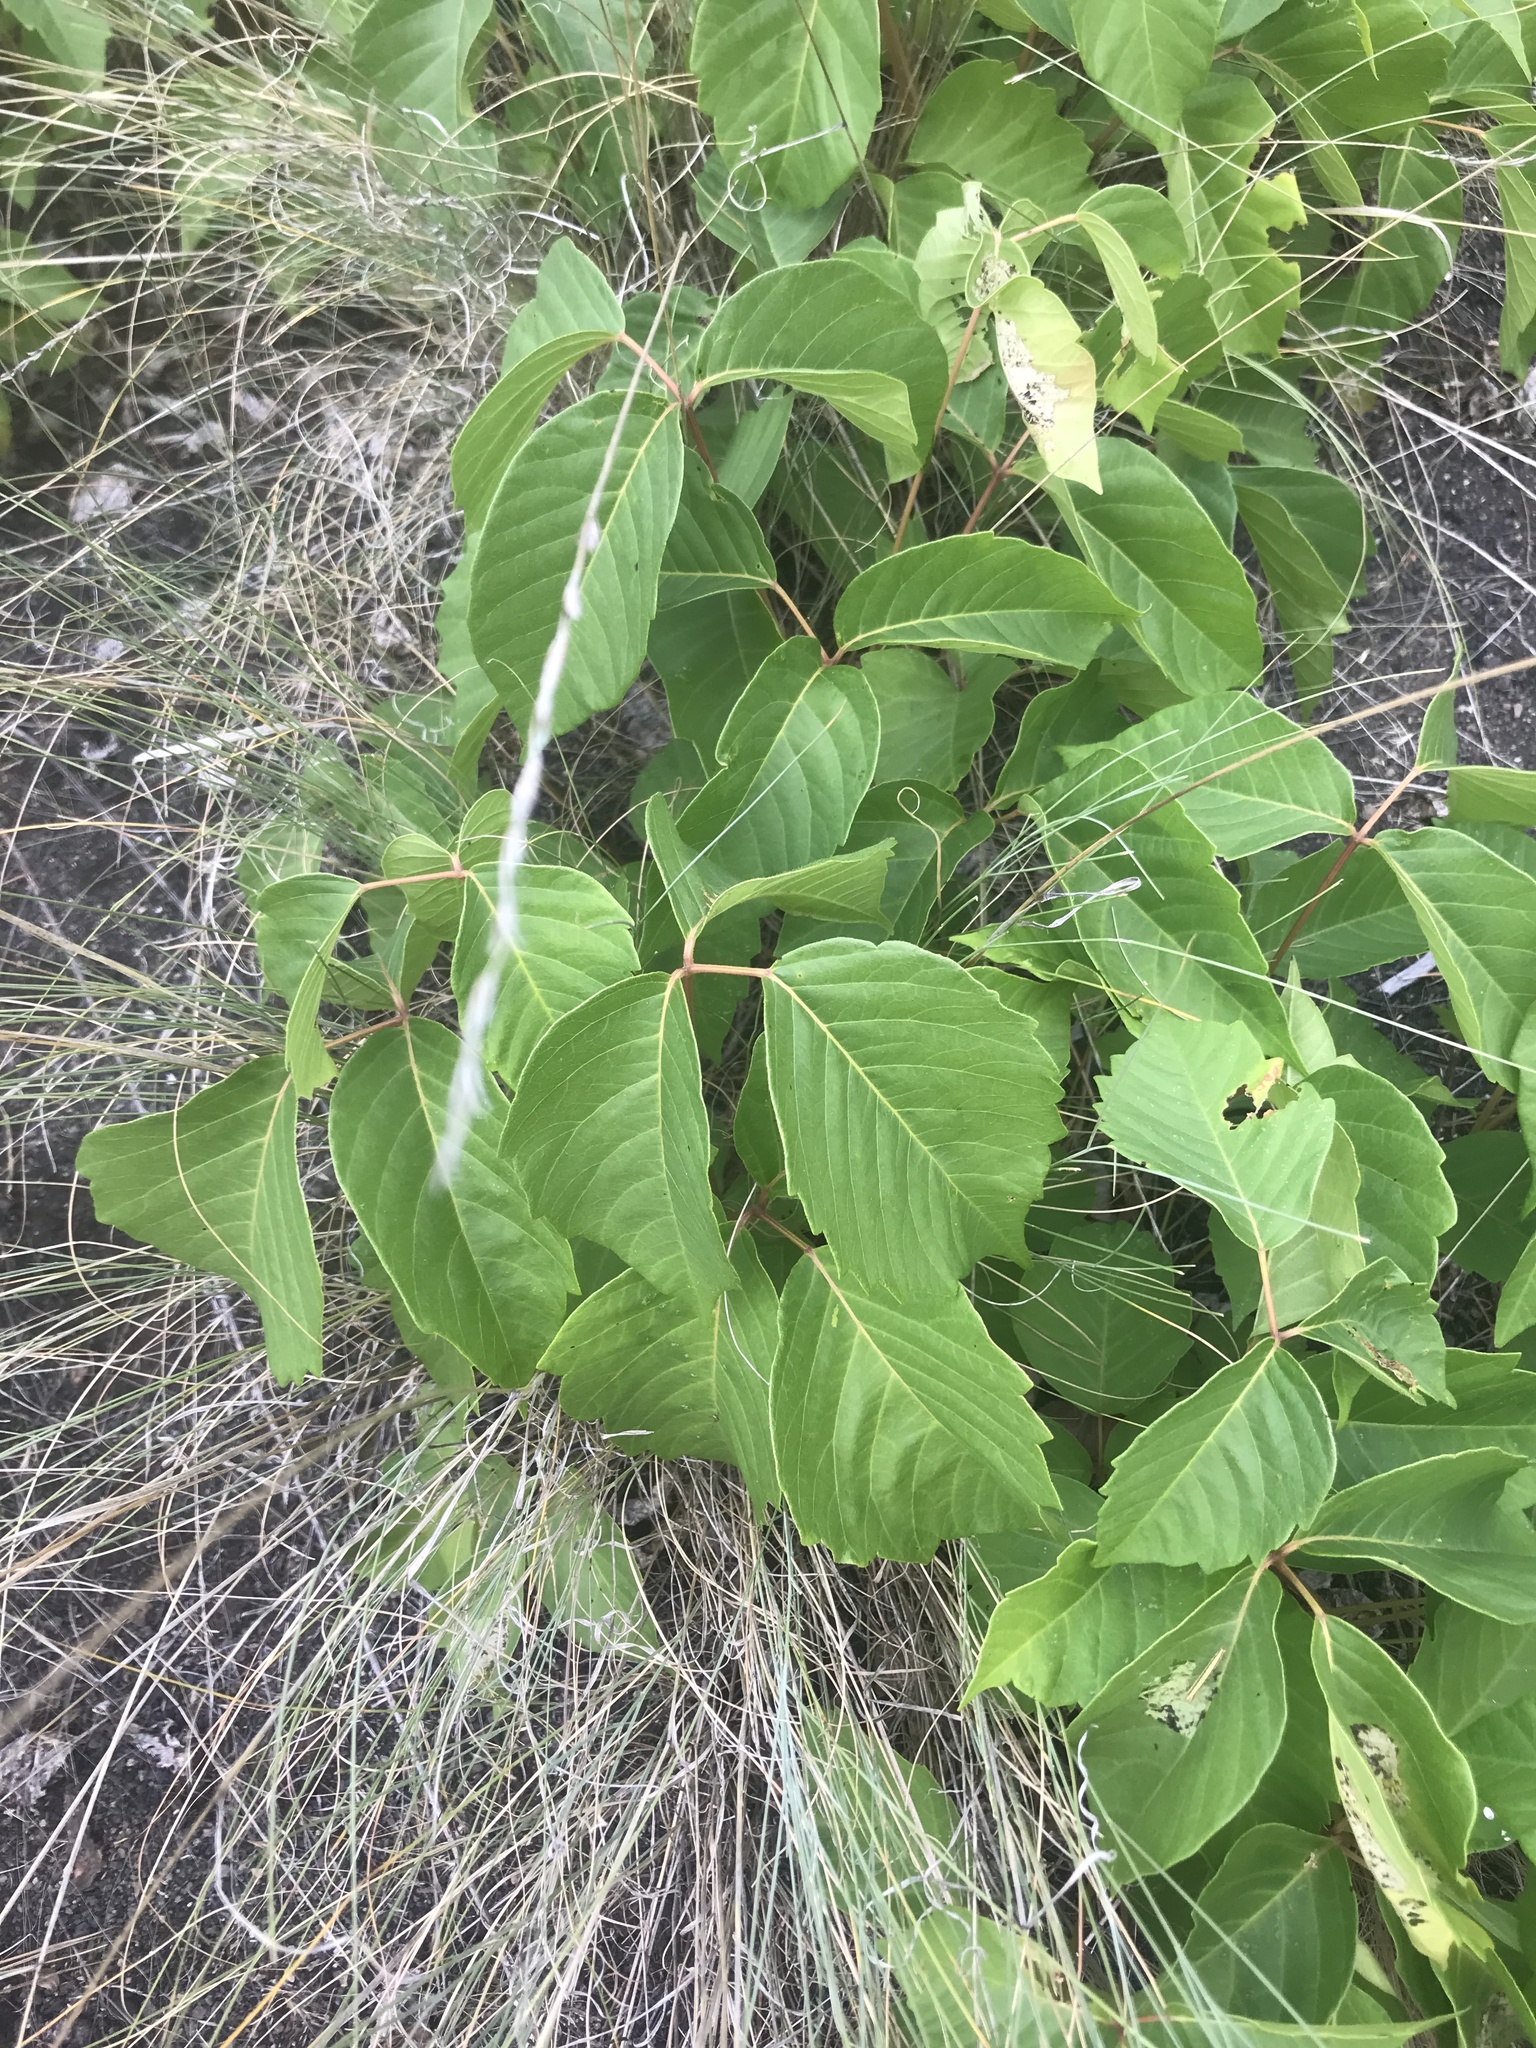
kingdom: Plantae
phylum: Tracheophyta
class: Magnoliopsida
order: Sapindales
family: Anacardiaceae
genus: Toxicodendron
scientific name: Toxicodendron rydbergii
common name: Rydberg's poison-ivy
